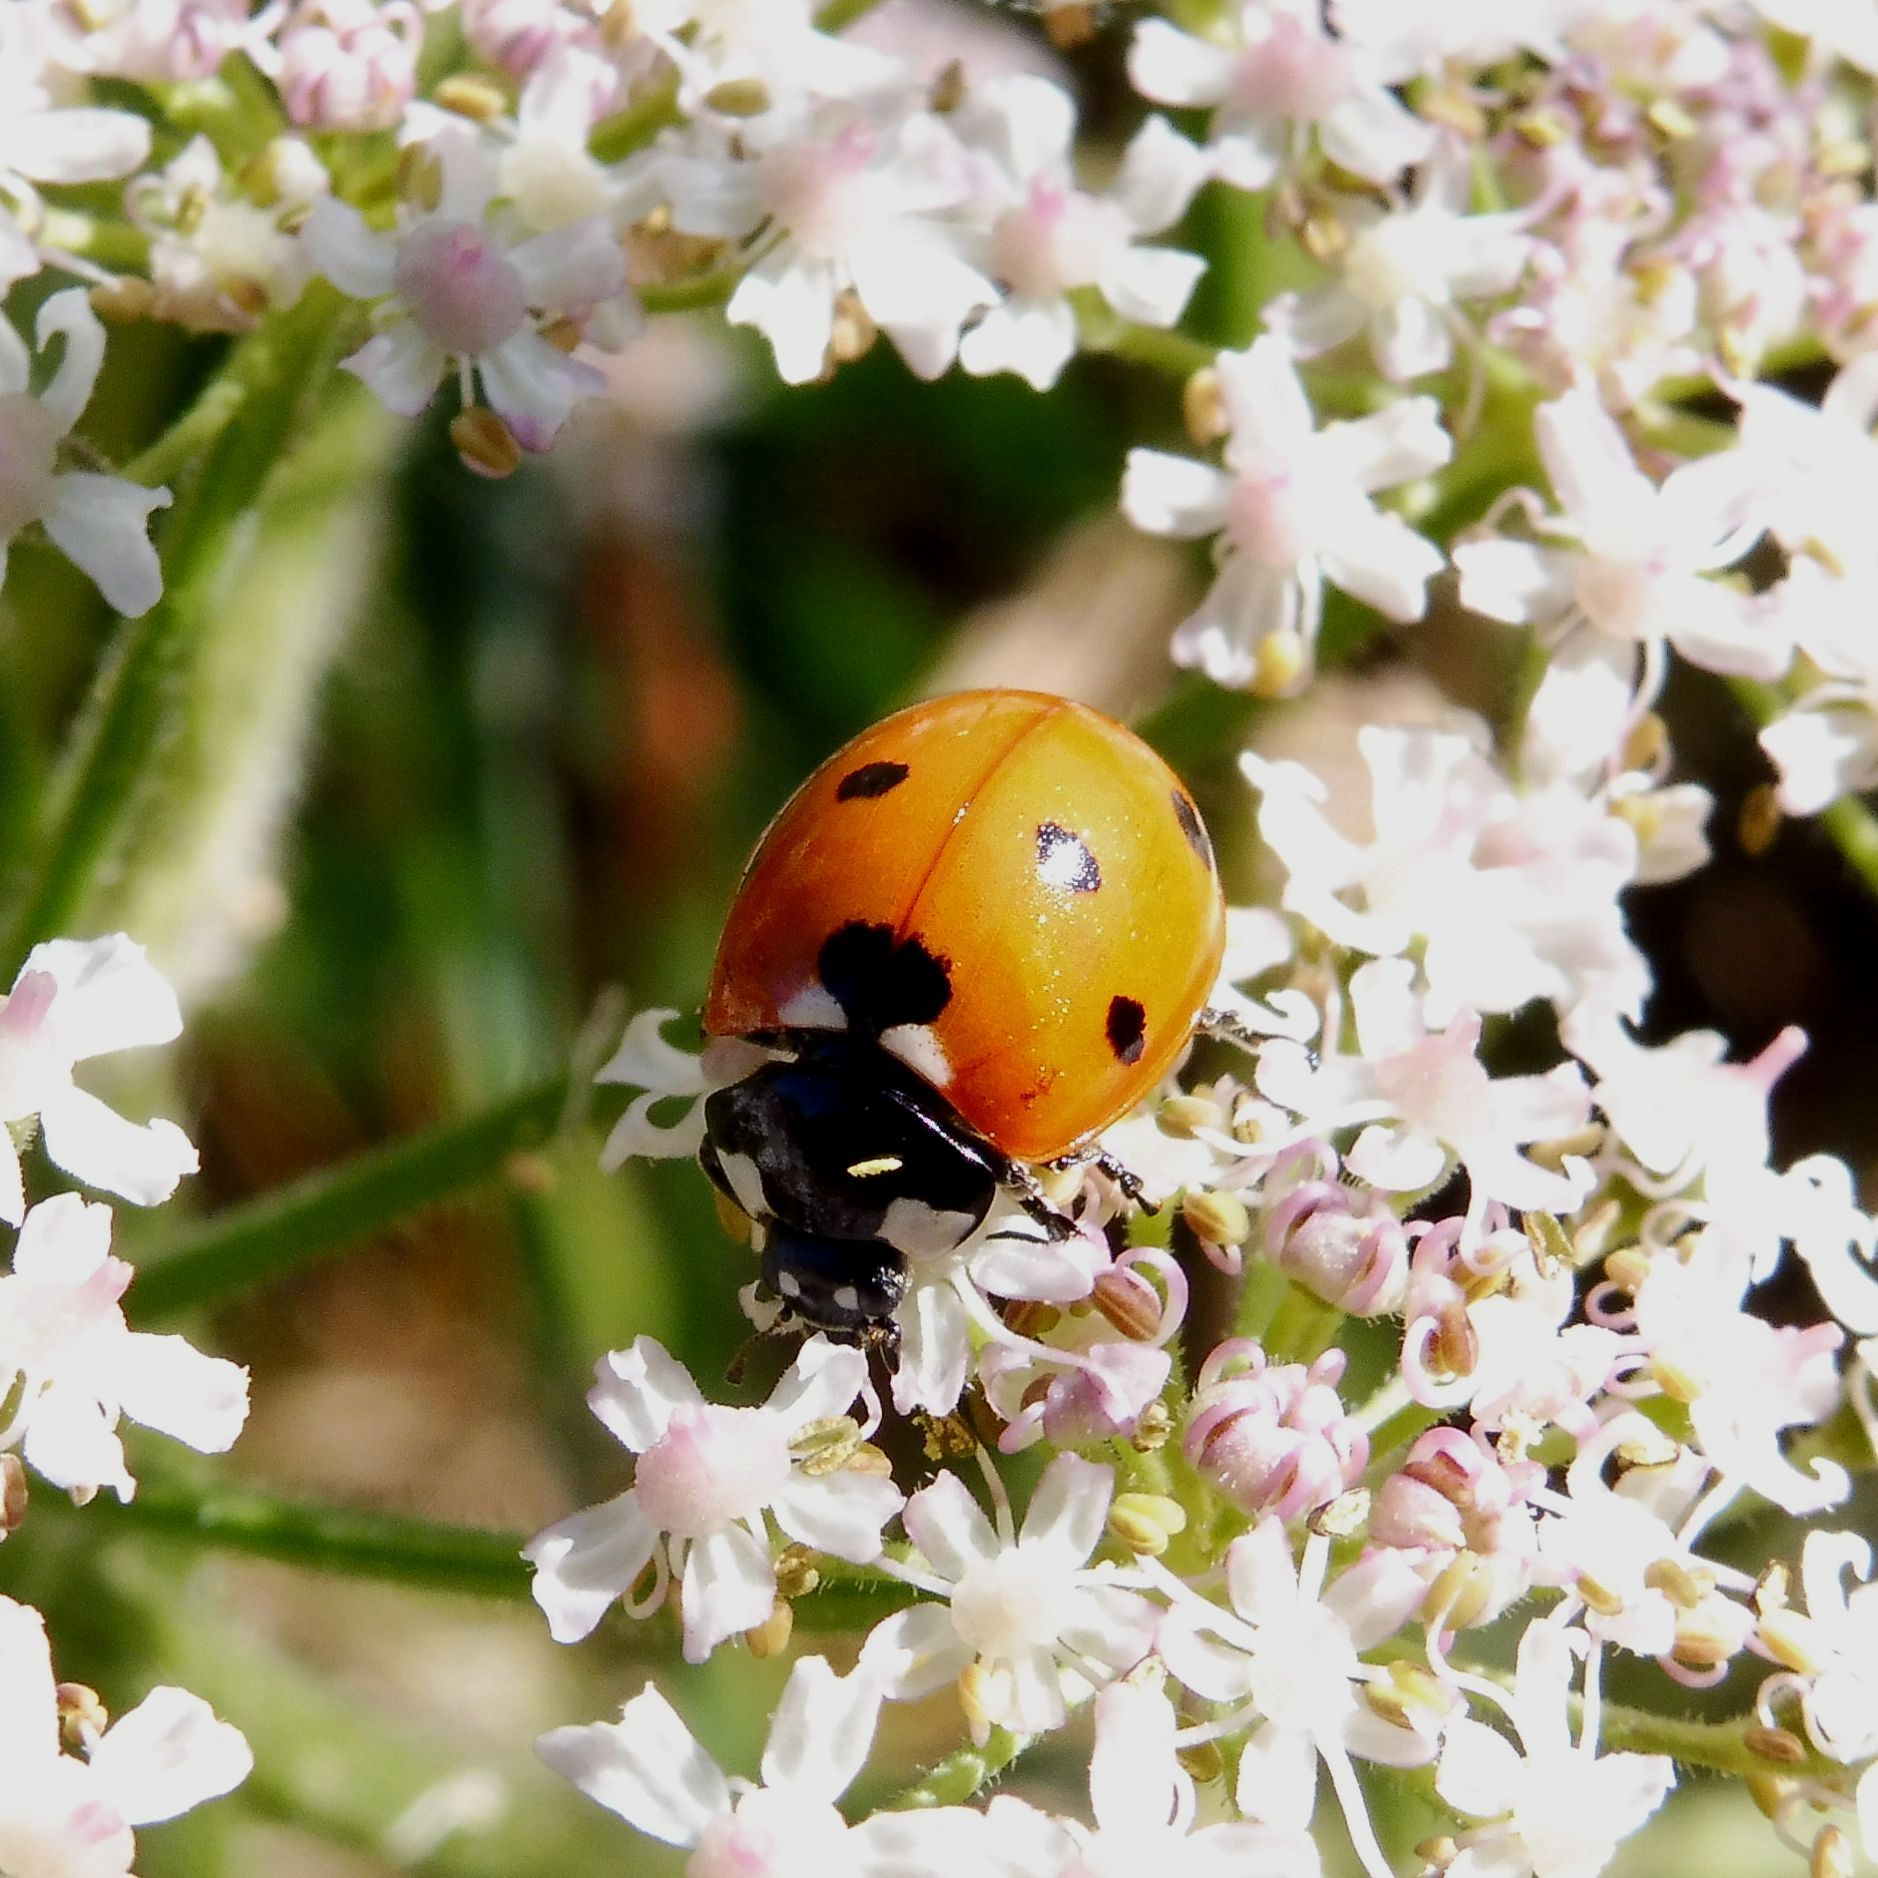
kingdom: Animalia
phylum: Arthropoda
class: Insecta
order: Coleoptera
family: Coccinellidae
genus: Coccinella
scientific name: Coccinella septempunctata
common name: Sevenspotted lady beetle
